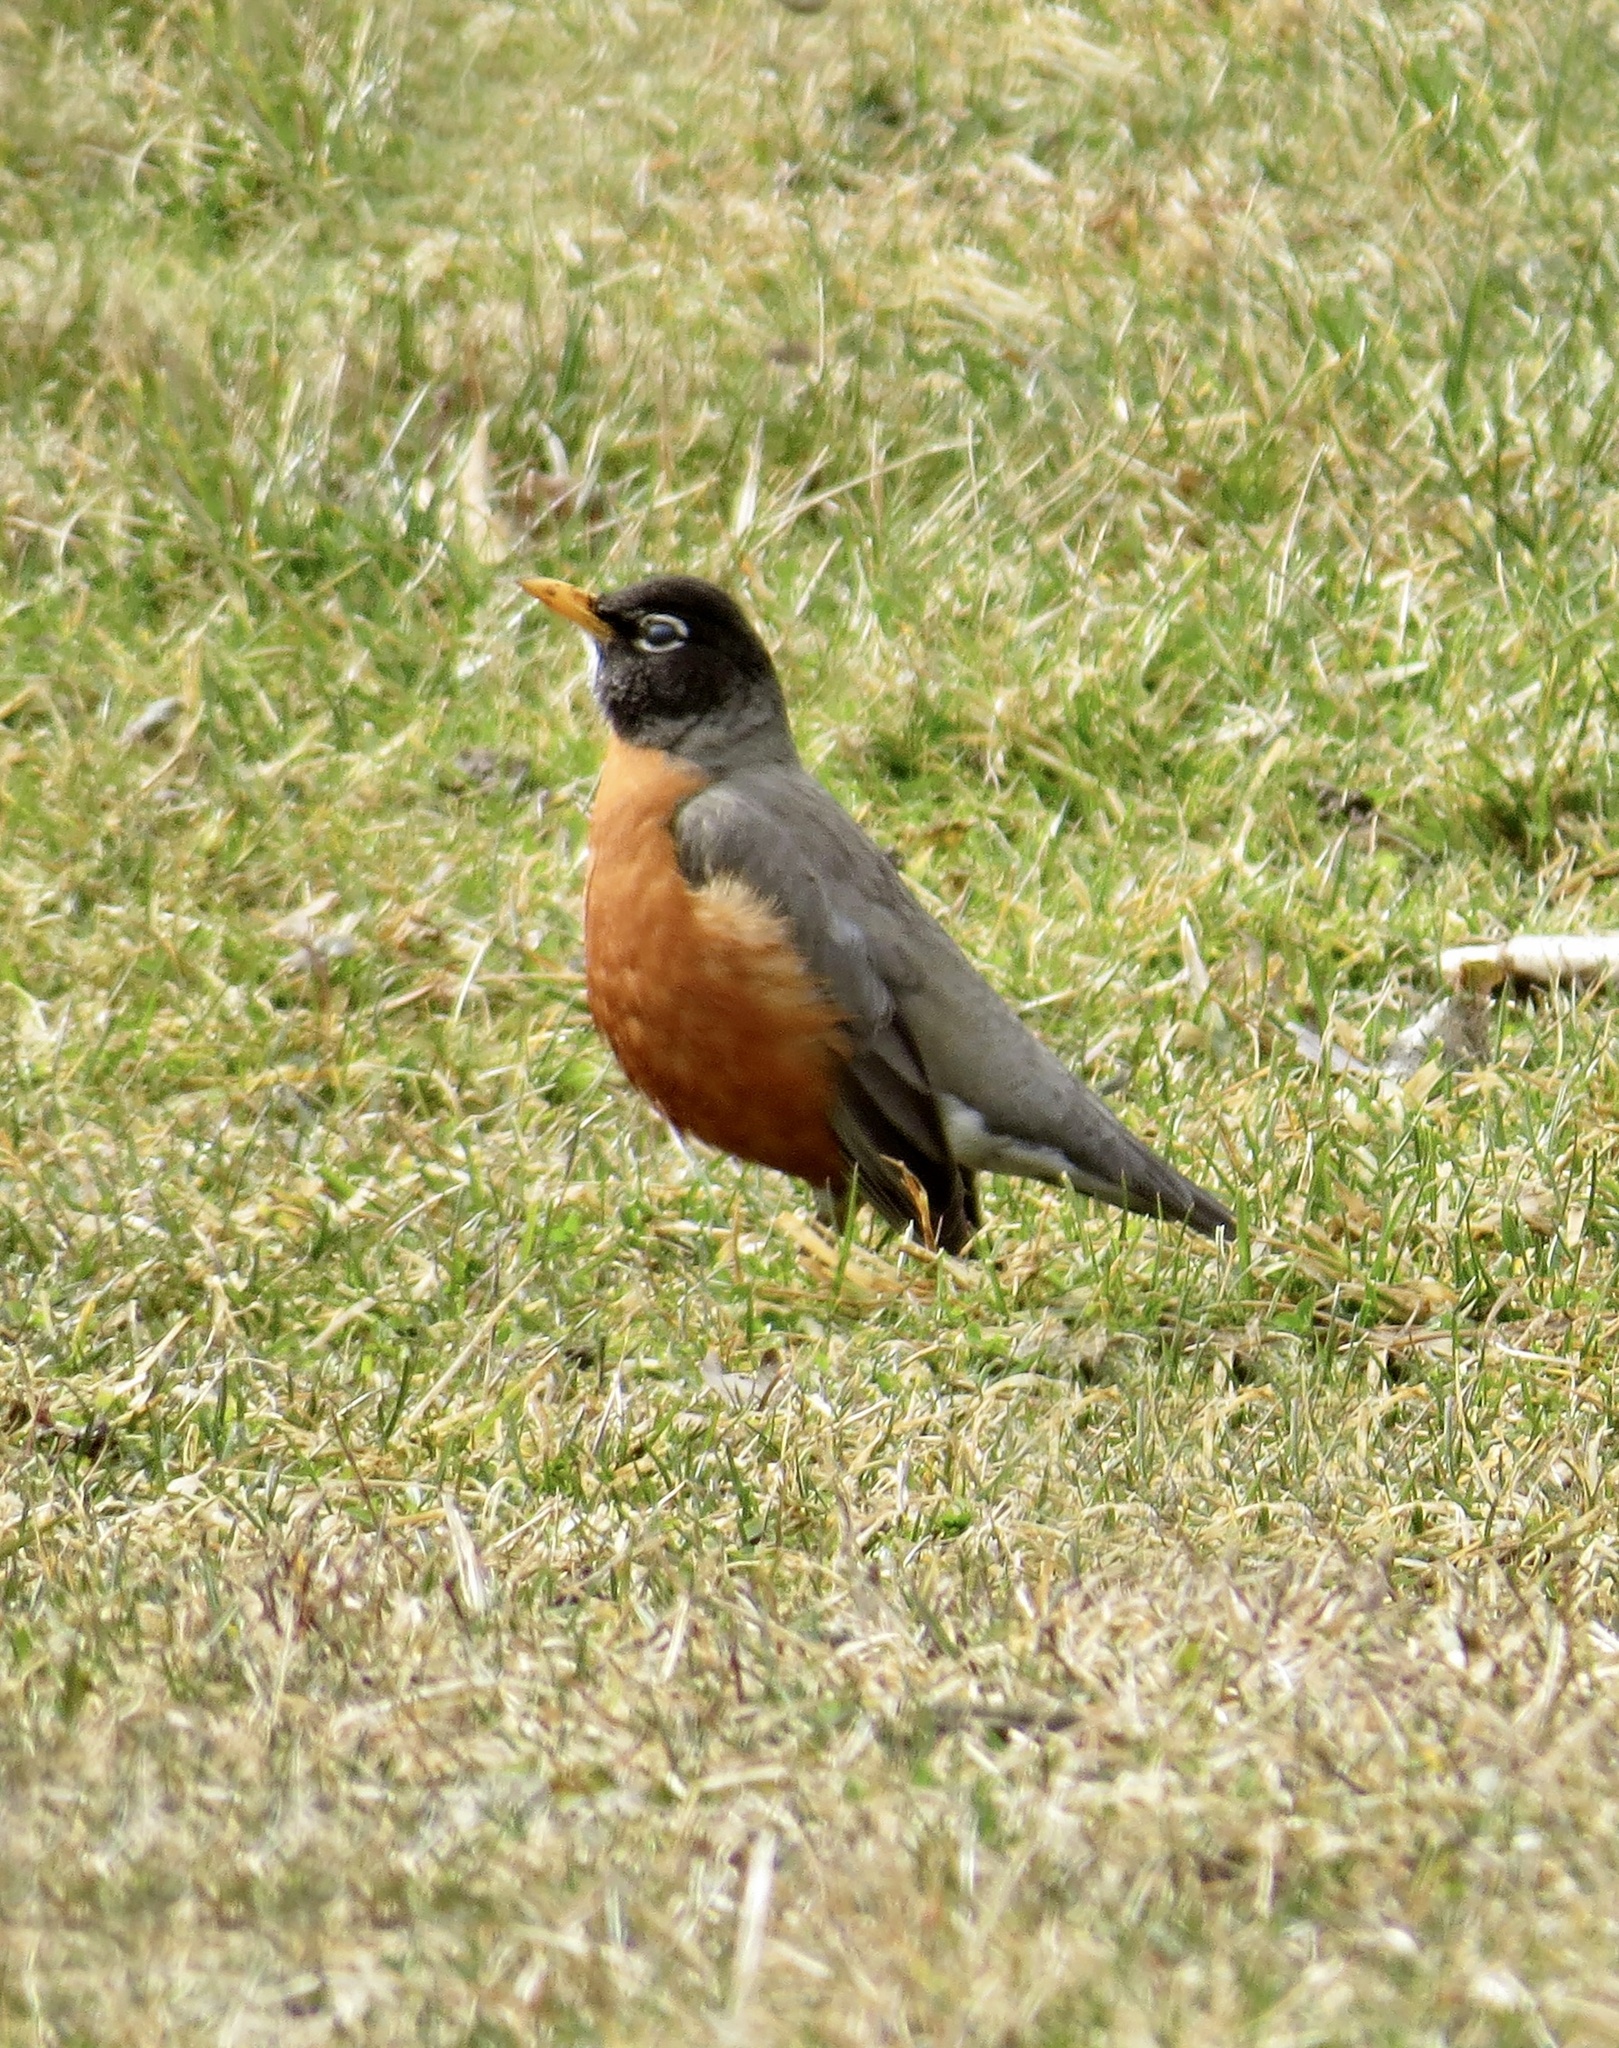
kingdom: Animalia
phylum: Chordata
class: Aves
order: Passeriformes
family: Turdidae
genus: Turdus
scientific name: Turdus migratorius
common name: American robin
